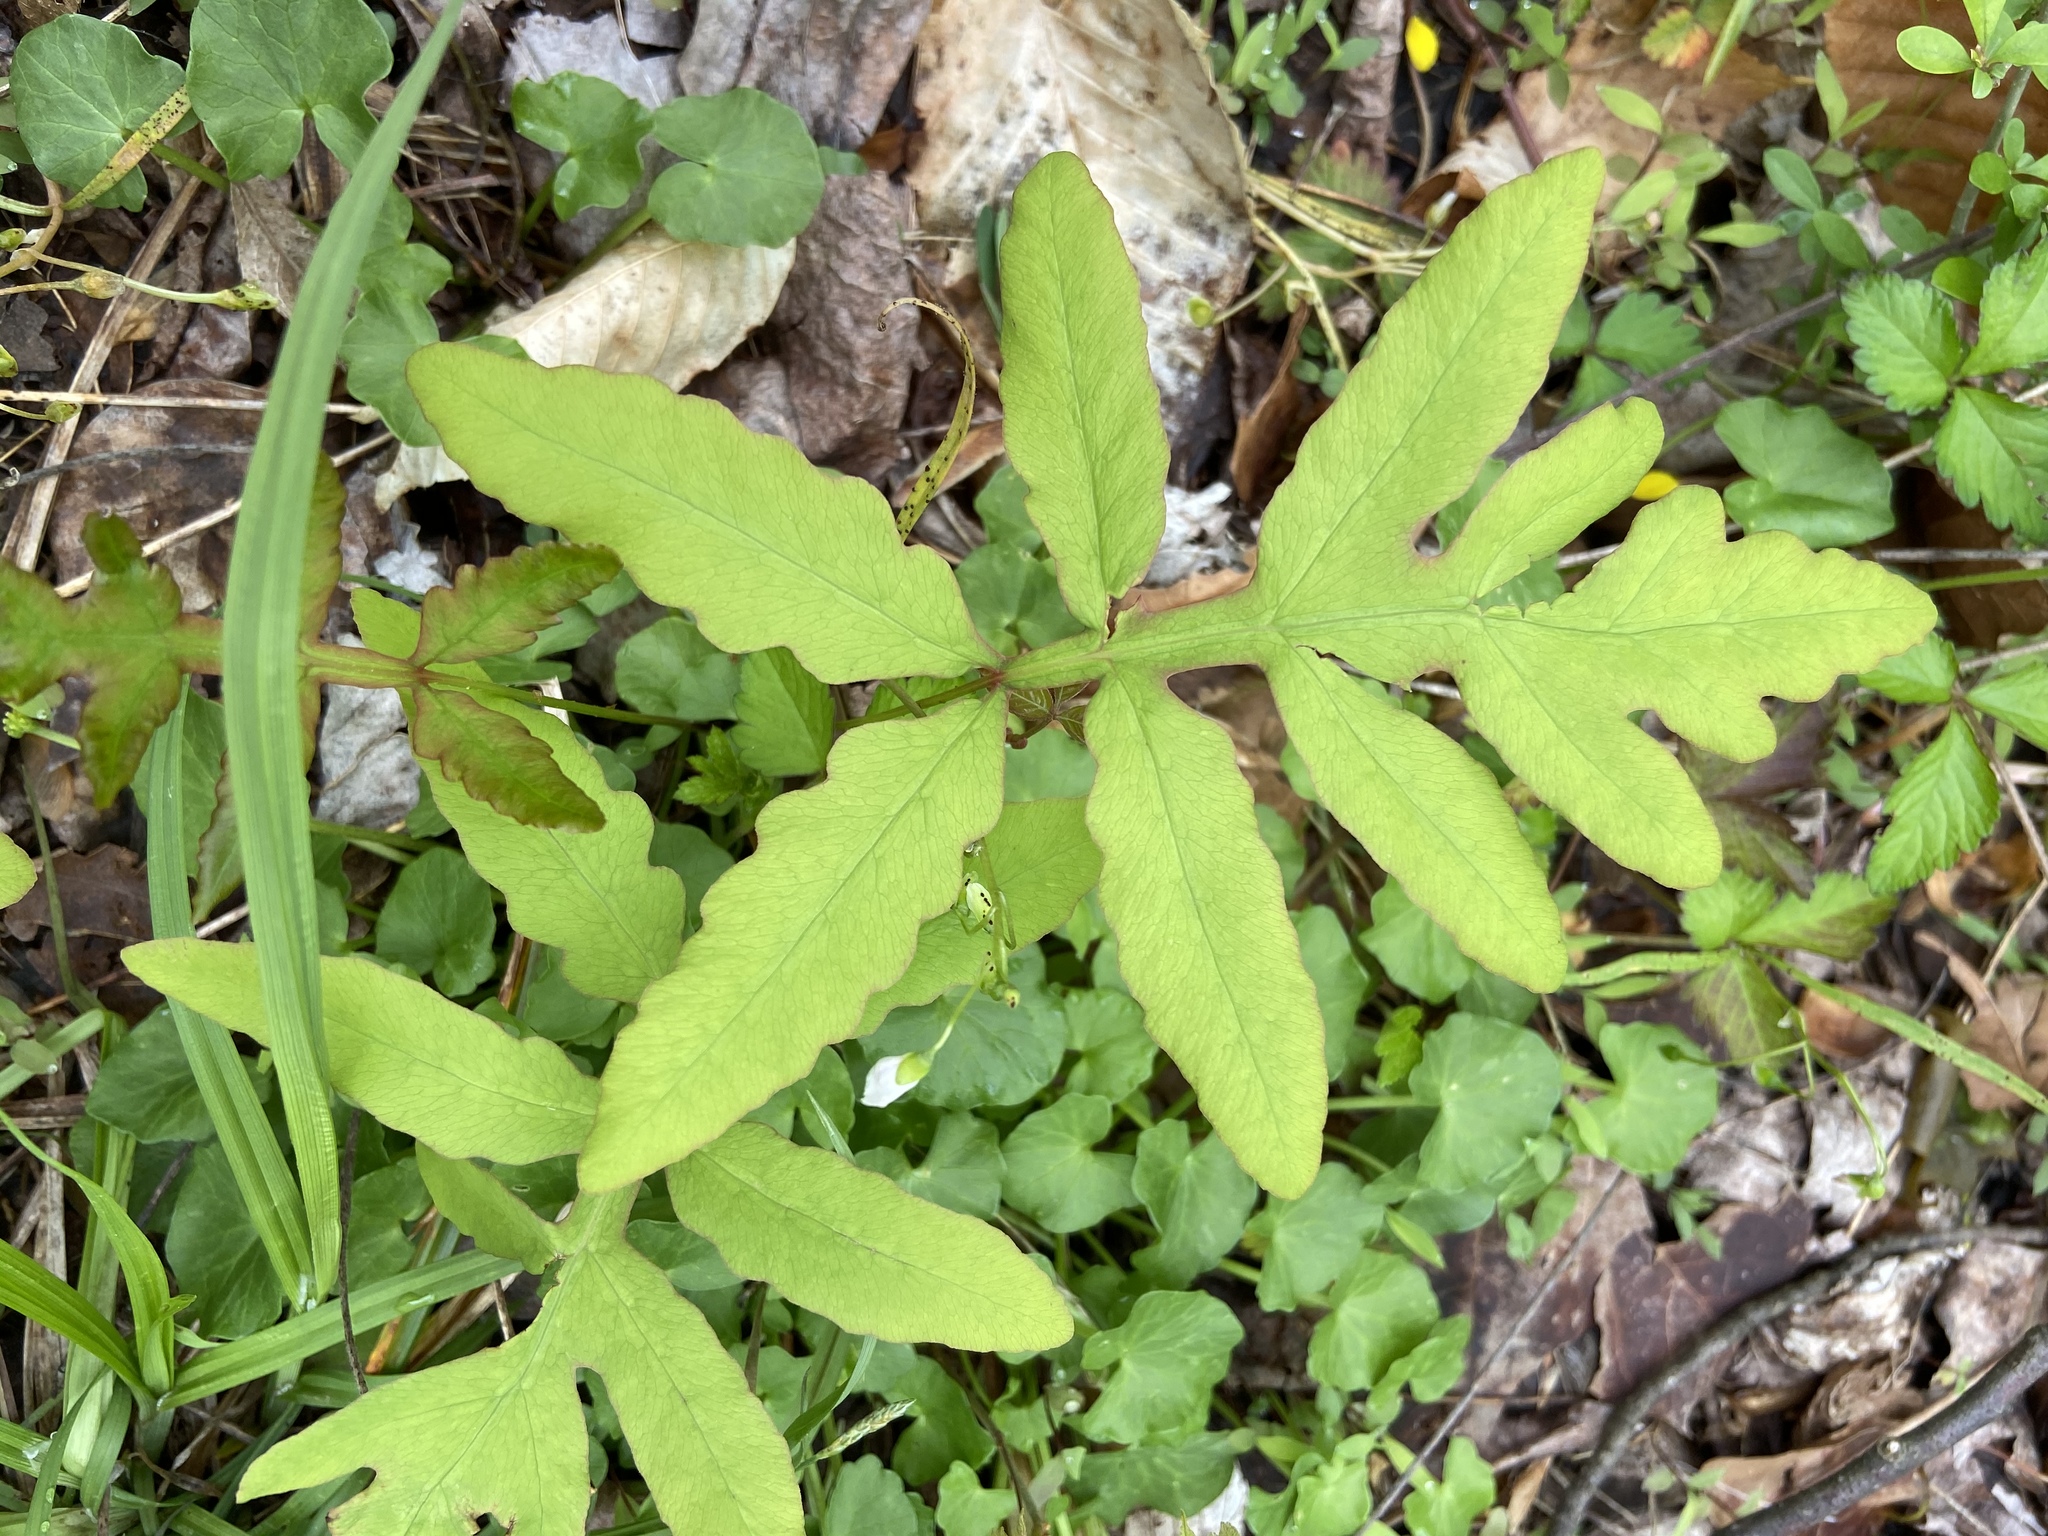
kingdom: Plantae
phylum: Tracheophyta
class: Polypodiopsida
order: Polypodiales
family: Onocleaceae
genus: Onoclea
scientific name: Onoclea sensibilis
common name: Sensitive fern
